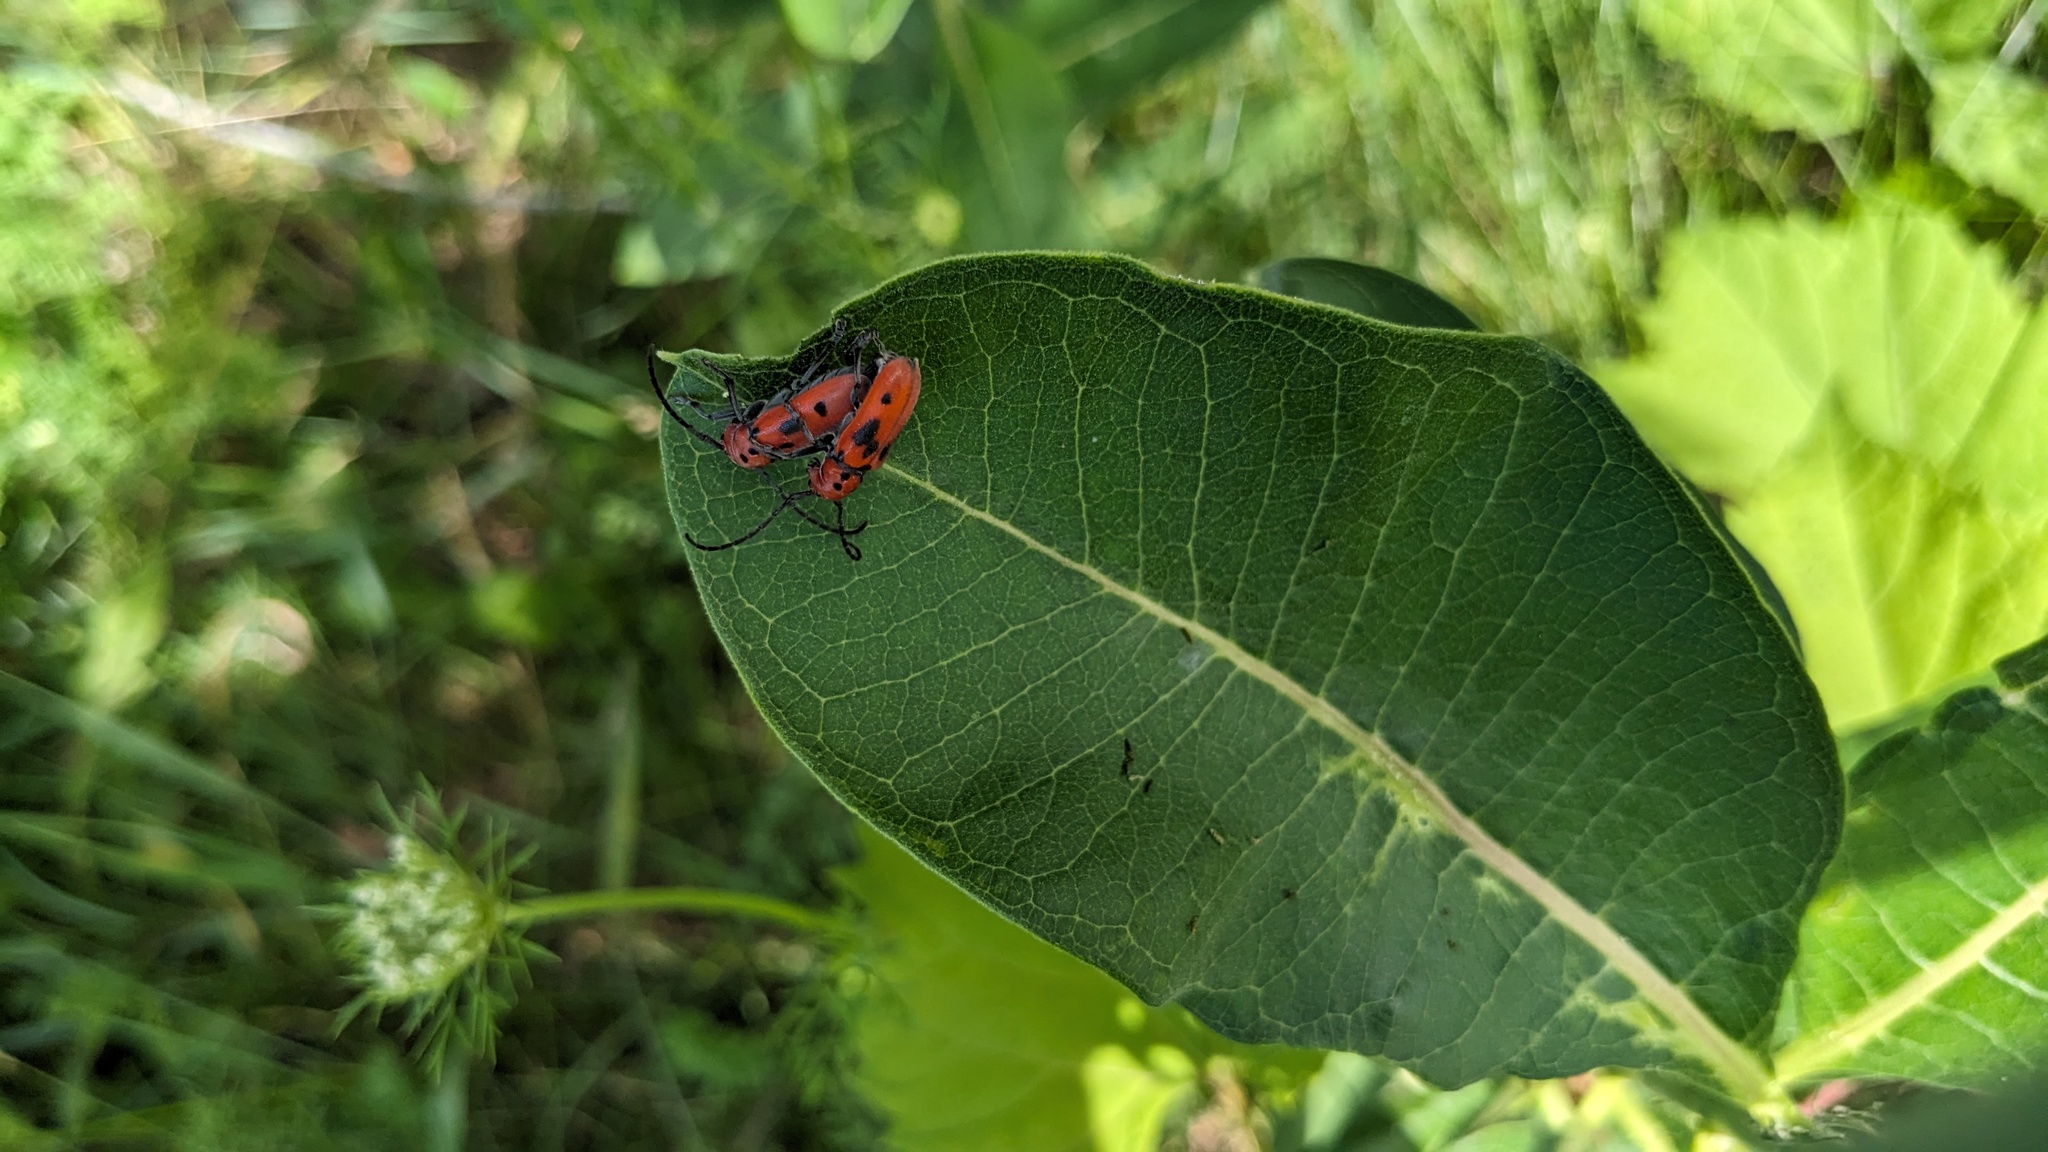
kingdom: Animalia
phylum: Arthropoda
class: Insecta
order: Coleoptera
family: Cerambycidae
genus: Tetraopes
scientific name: Tetraopes tetrophthalmus
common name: Red milkweed beetle
